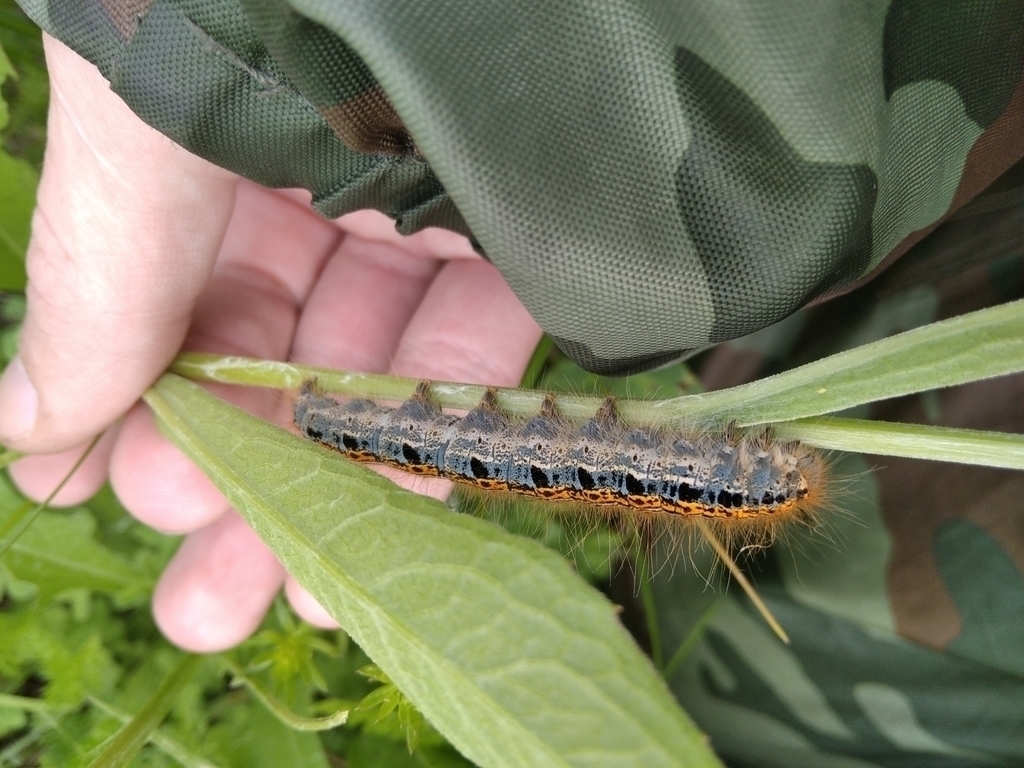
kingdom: Animalia
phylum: Arthropoda
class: Insecta
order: Lepidoptera
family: Lasiocampidae
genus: Malacosoma
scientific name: Malacosoma castrense
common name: Ground lackey
